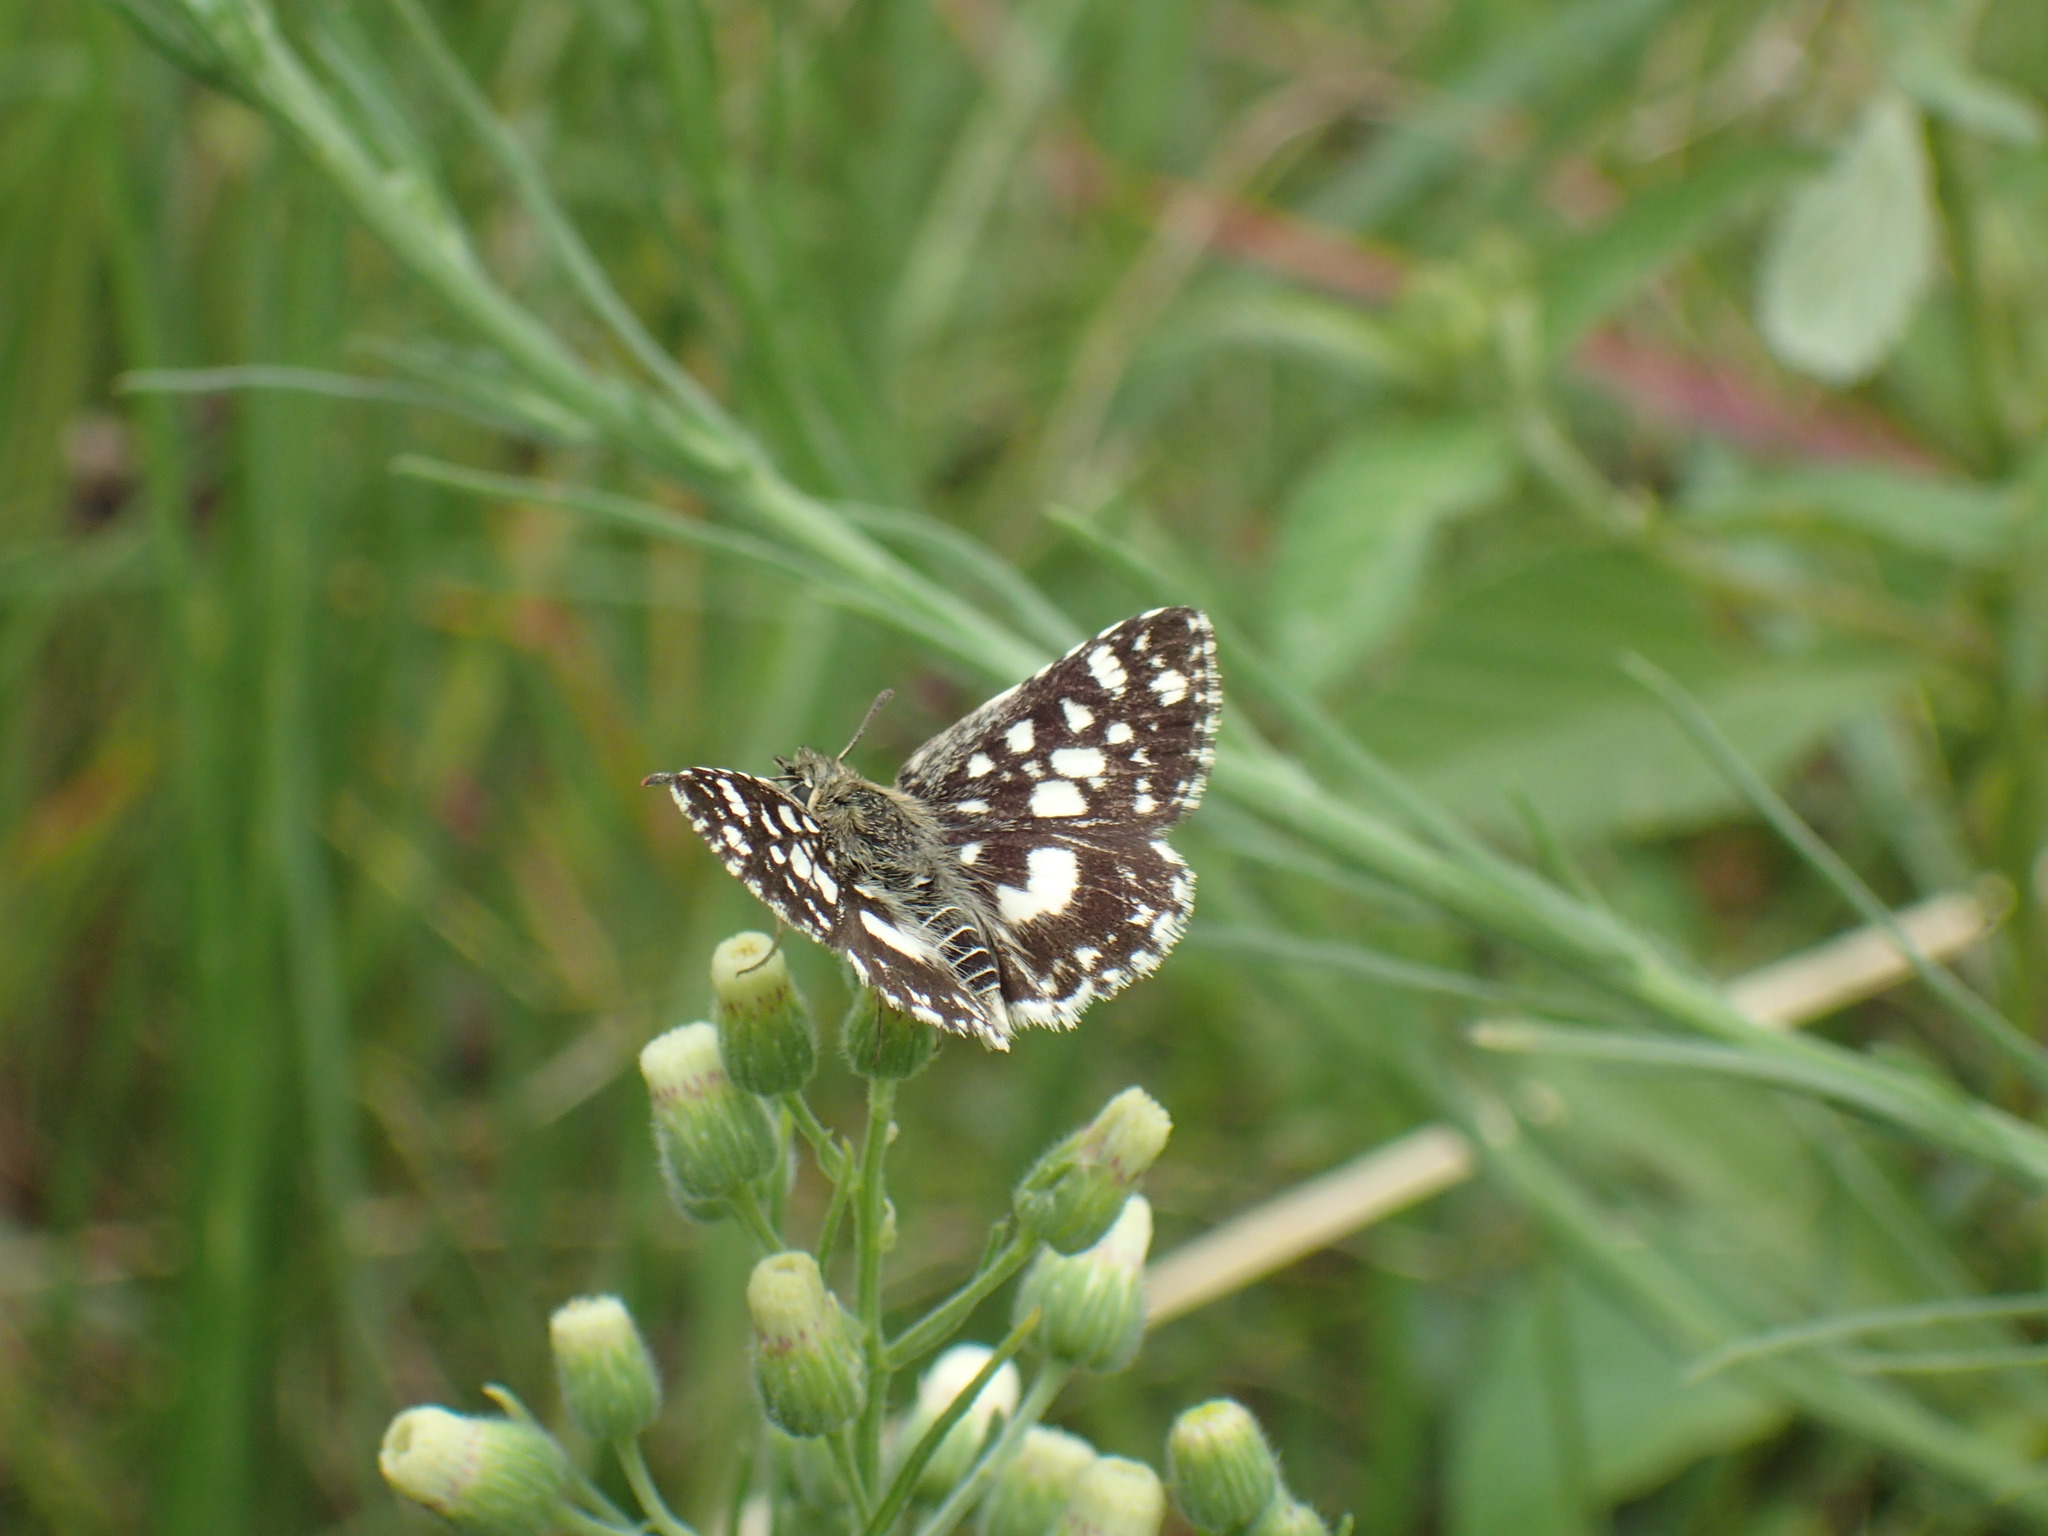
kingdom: Animalia
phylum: Arthropoda
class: Insecta
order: Lepidoptera
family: Hesperiidae
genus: Spialia
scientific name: Spialia spio
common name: Mountain sandman
